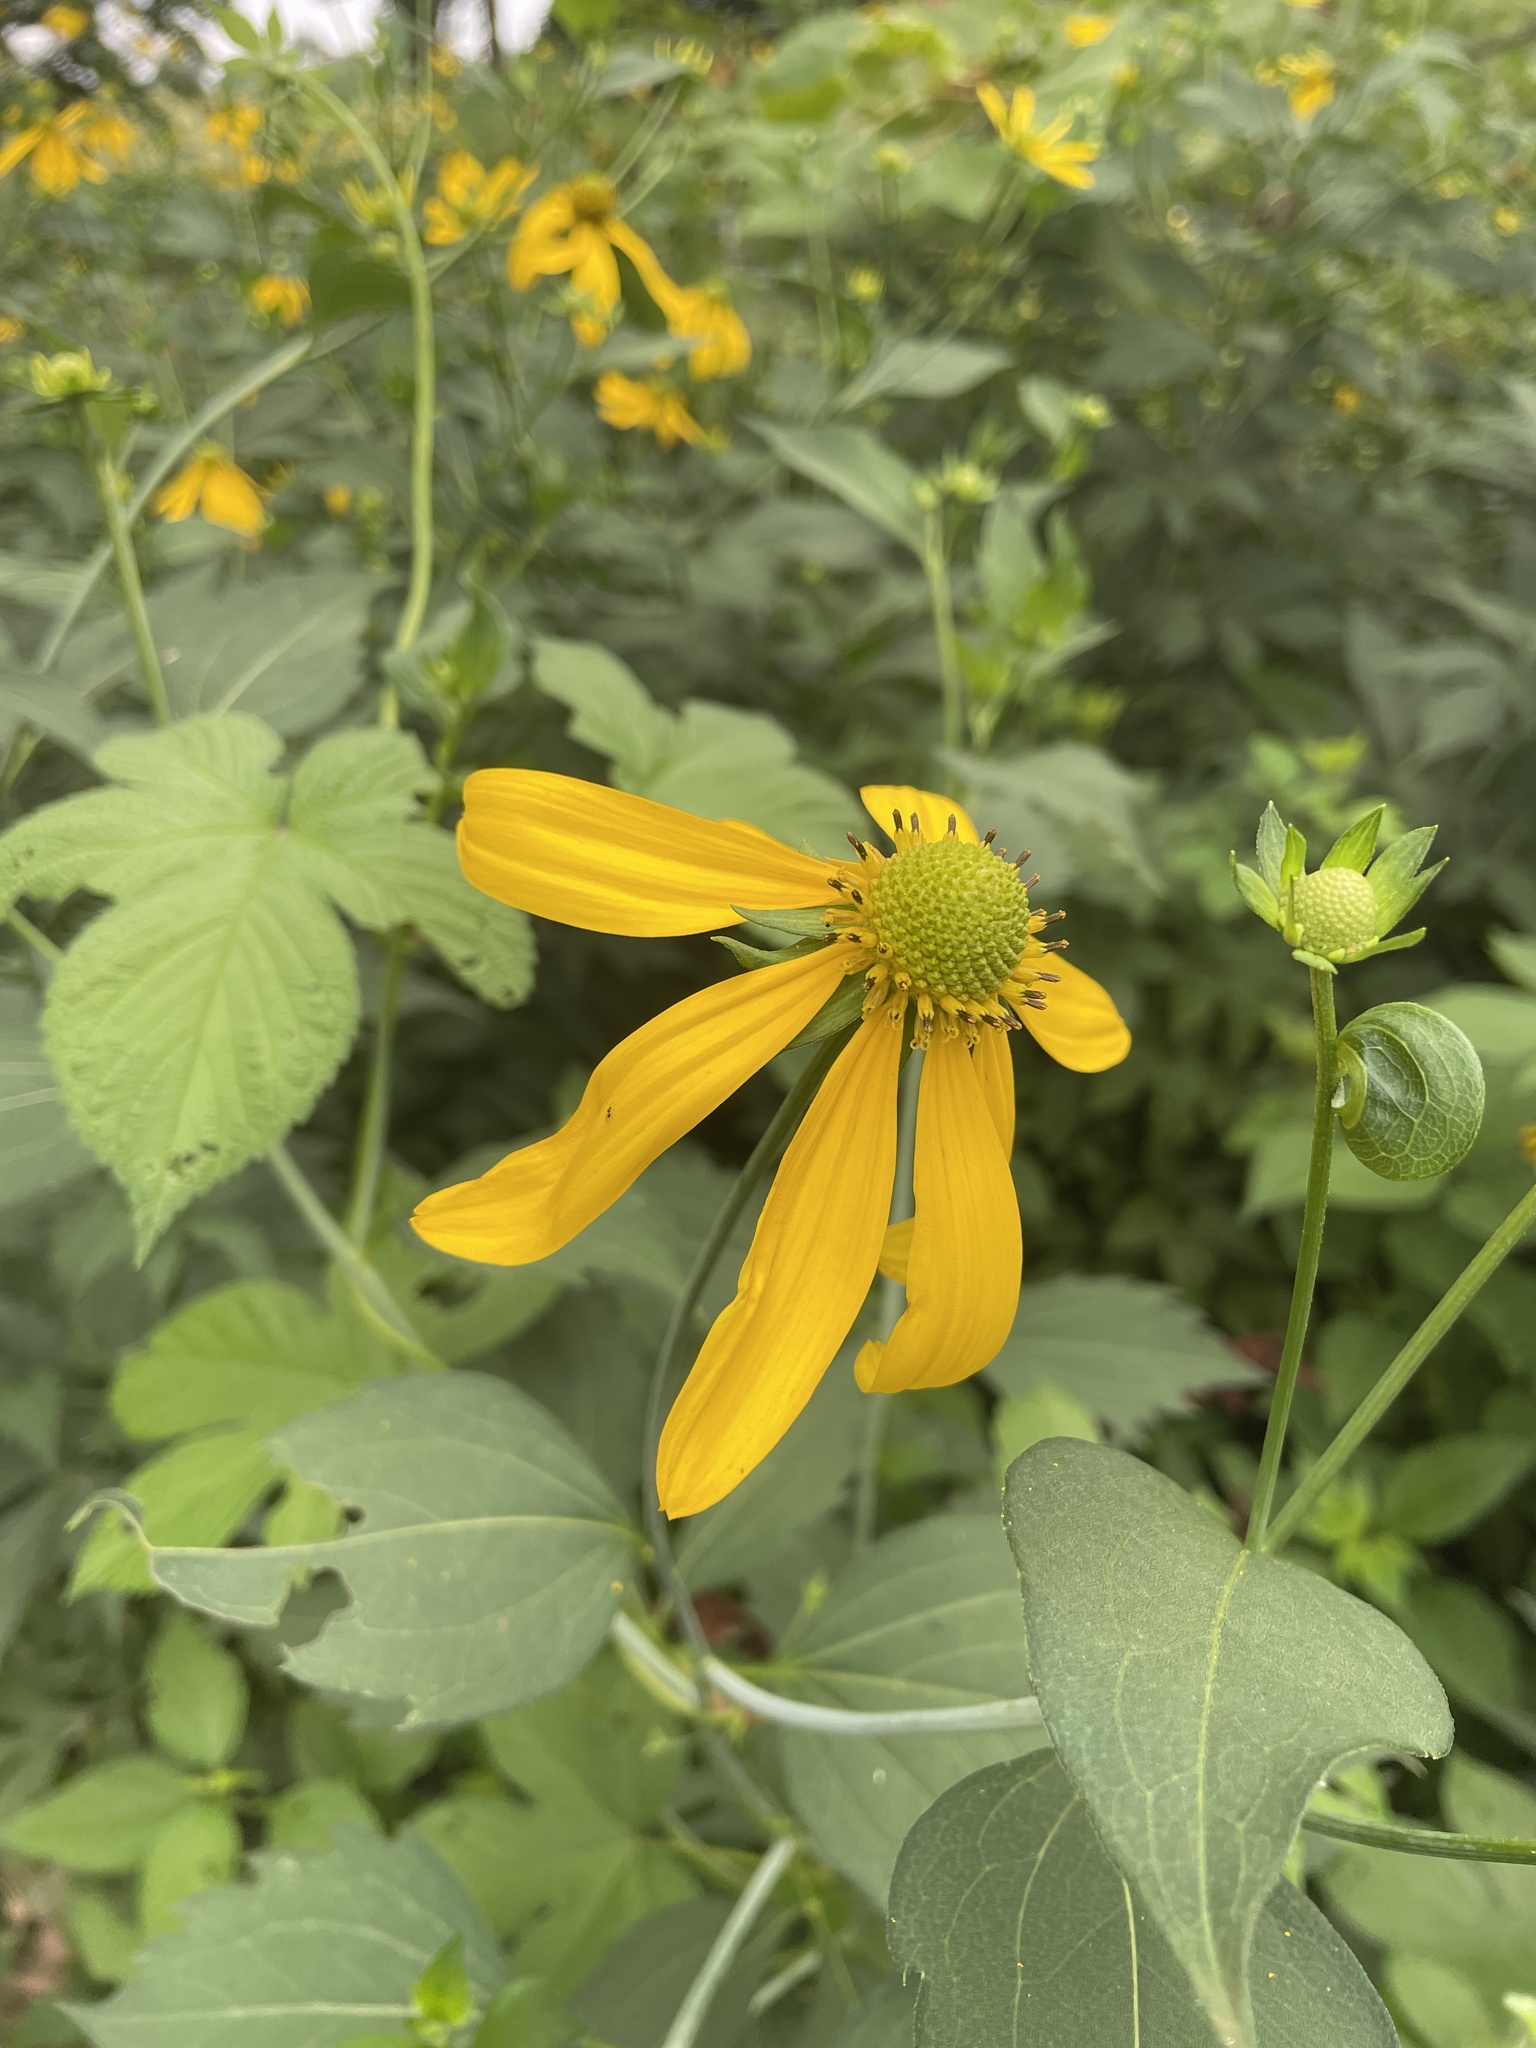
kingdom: Plantae
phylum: Tracheophyta
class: Magnoliopsida
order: Asterales
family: Asteraceae
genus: Rudbeckia
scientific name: Rudbeckia laciniata
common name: Coneflower
